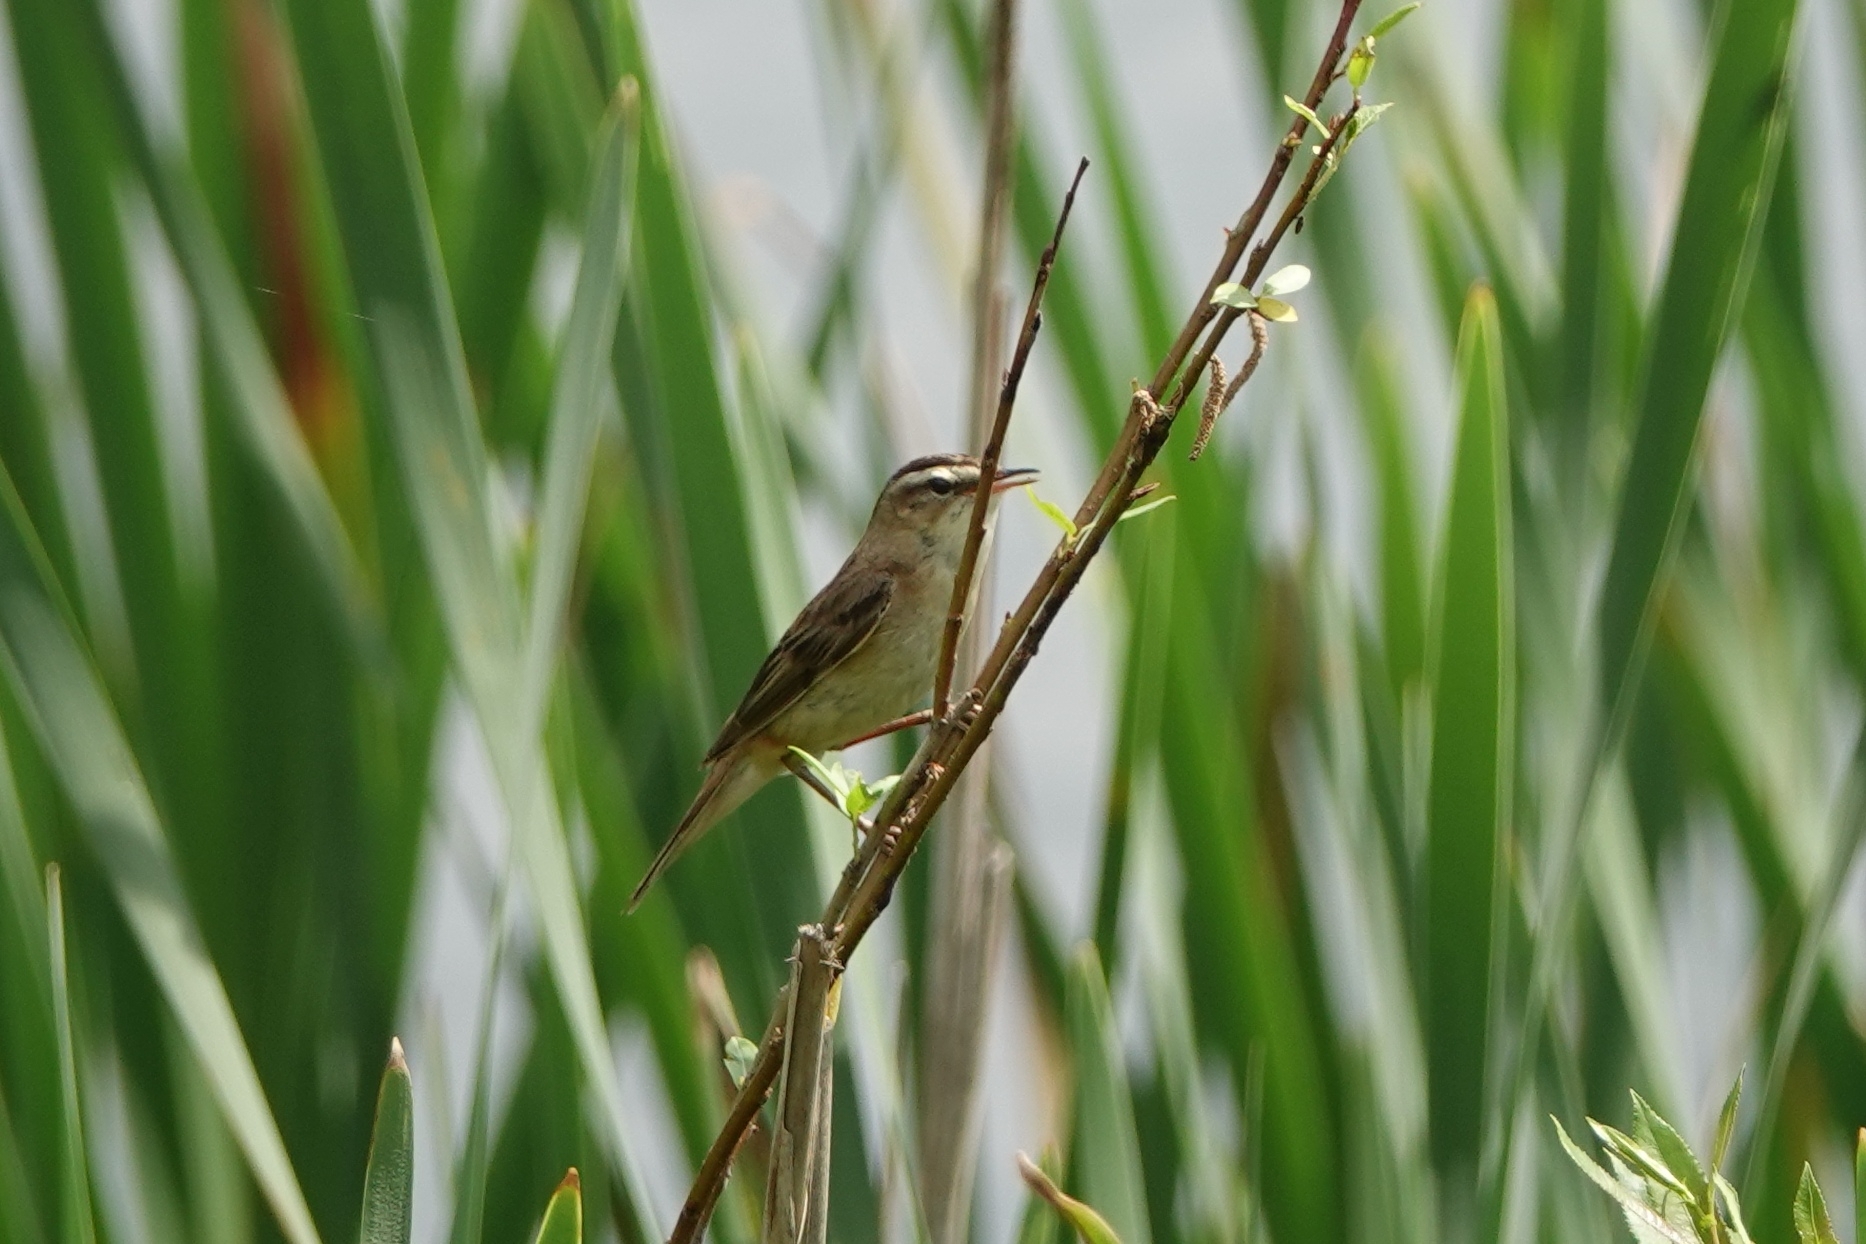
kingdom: Animalia
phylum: Chordata
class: Aves
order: Passeriformes
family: Acrocephalidae
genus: Acrocephalus
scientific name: Acrocephalus schoenobaenus
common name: Sedge warbler
